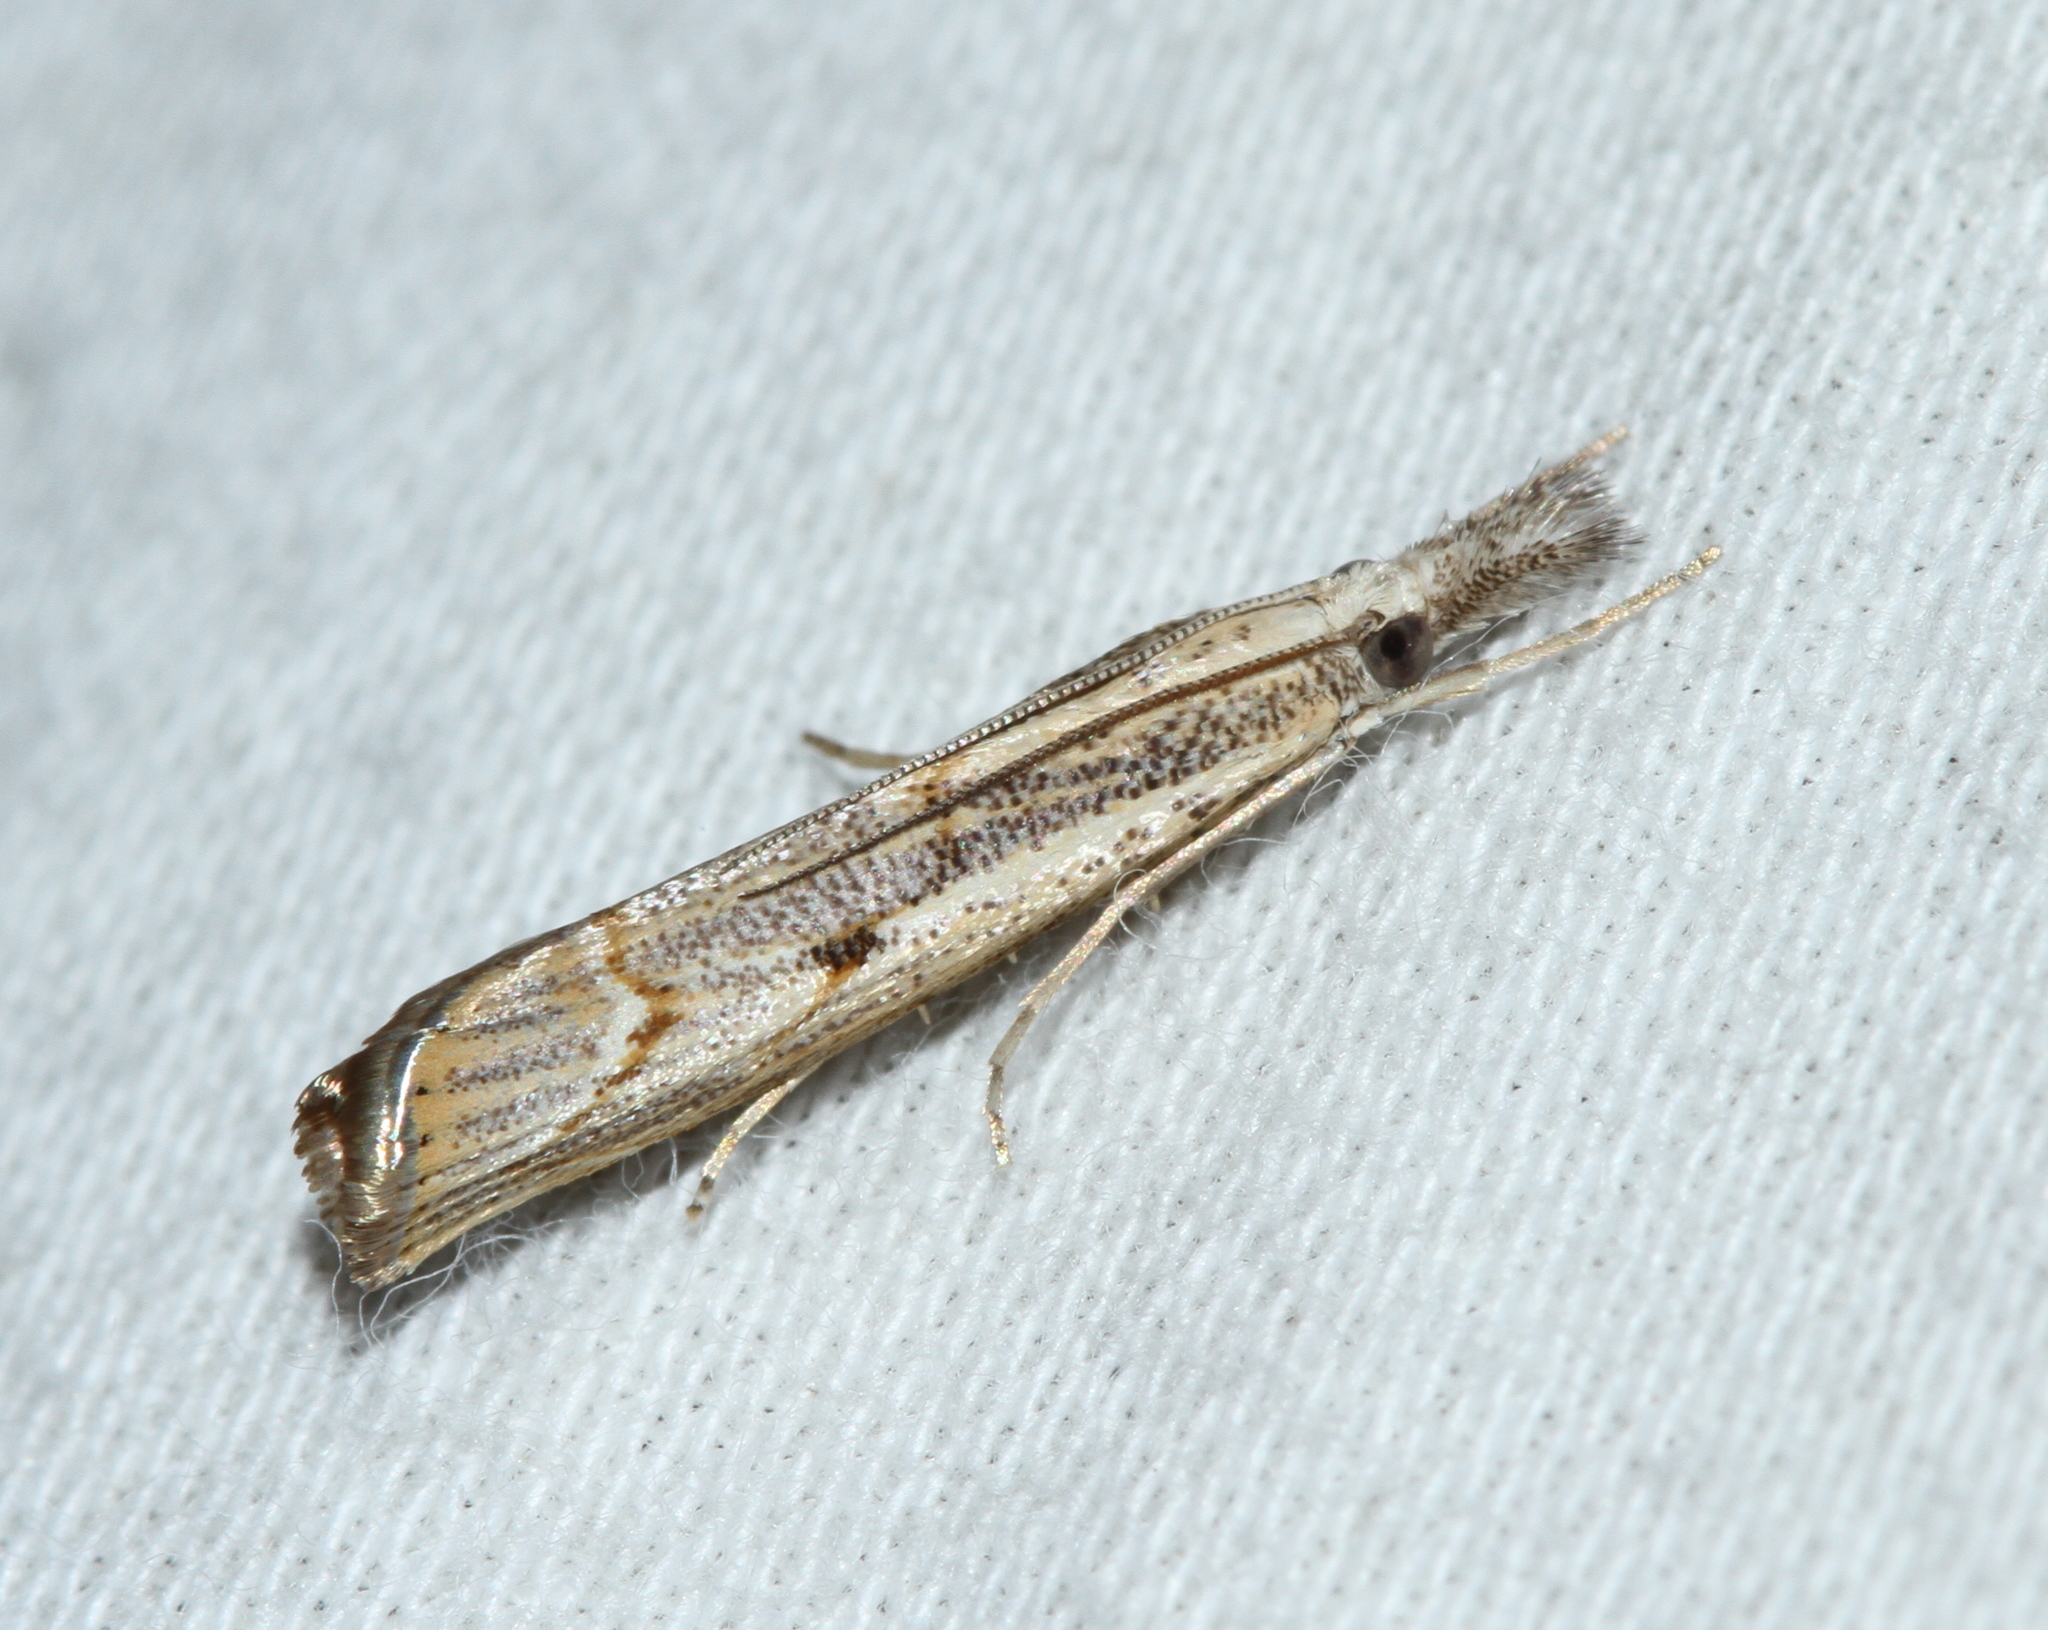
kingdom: Animalia
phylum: Arthropoda
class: Insecta
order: Lepidoptera
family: Crambidae
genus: Agriphila
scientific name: Agriphila geniculea
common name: Elbow-stripe grass-veneer
